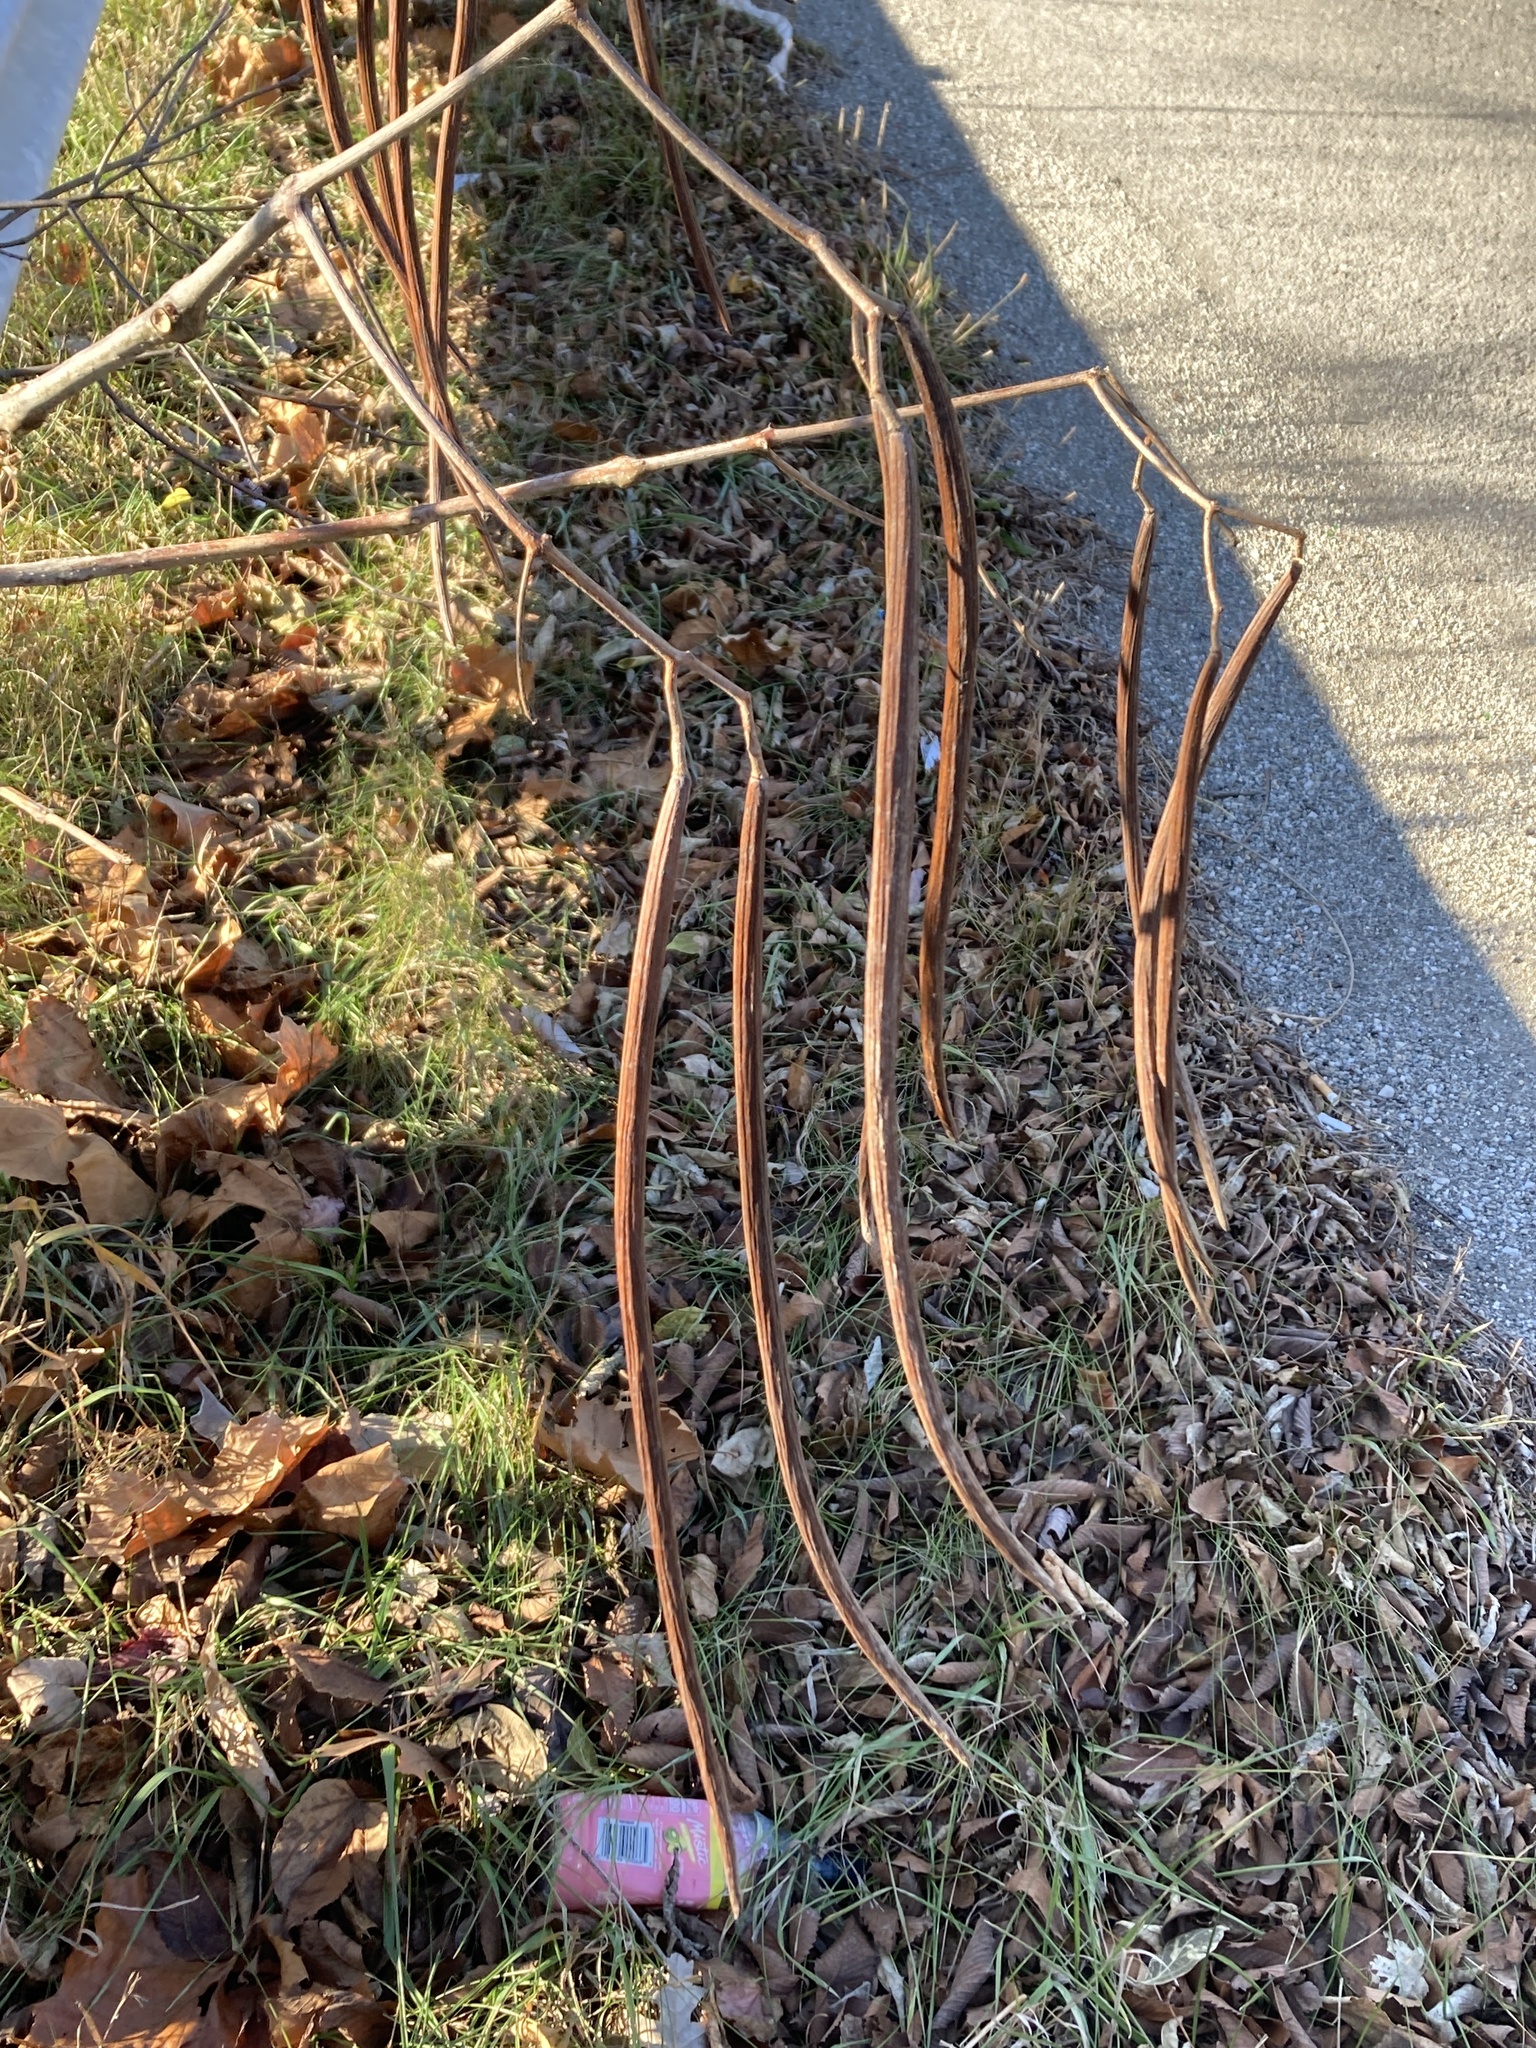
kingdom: Plantae
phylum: Tracheophyta
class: Magnoliopsida
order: Lamiales
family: Bignoniaceae
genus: Catalpa
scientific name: Catalpa speciosa
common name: Northern catalpa
